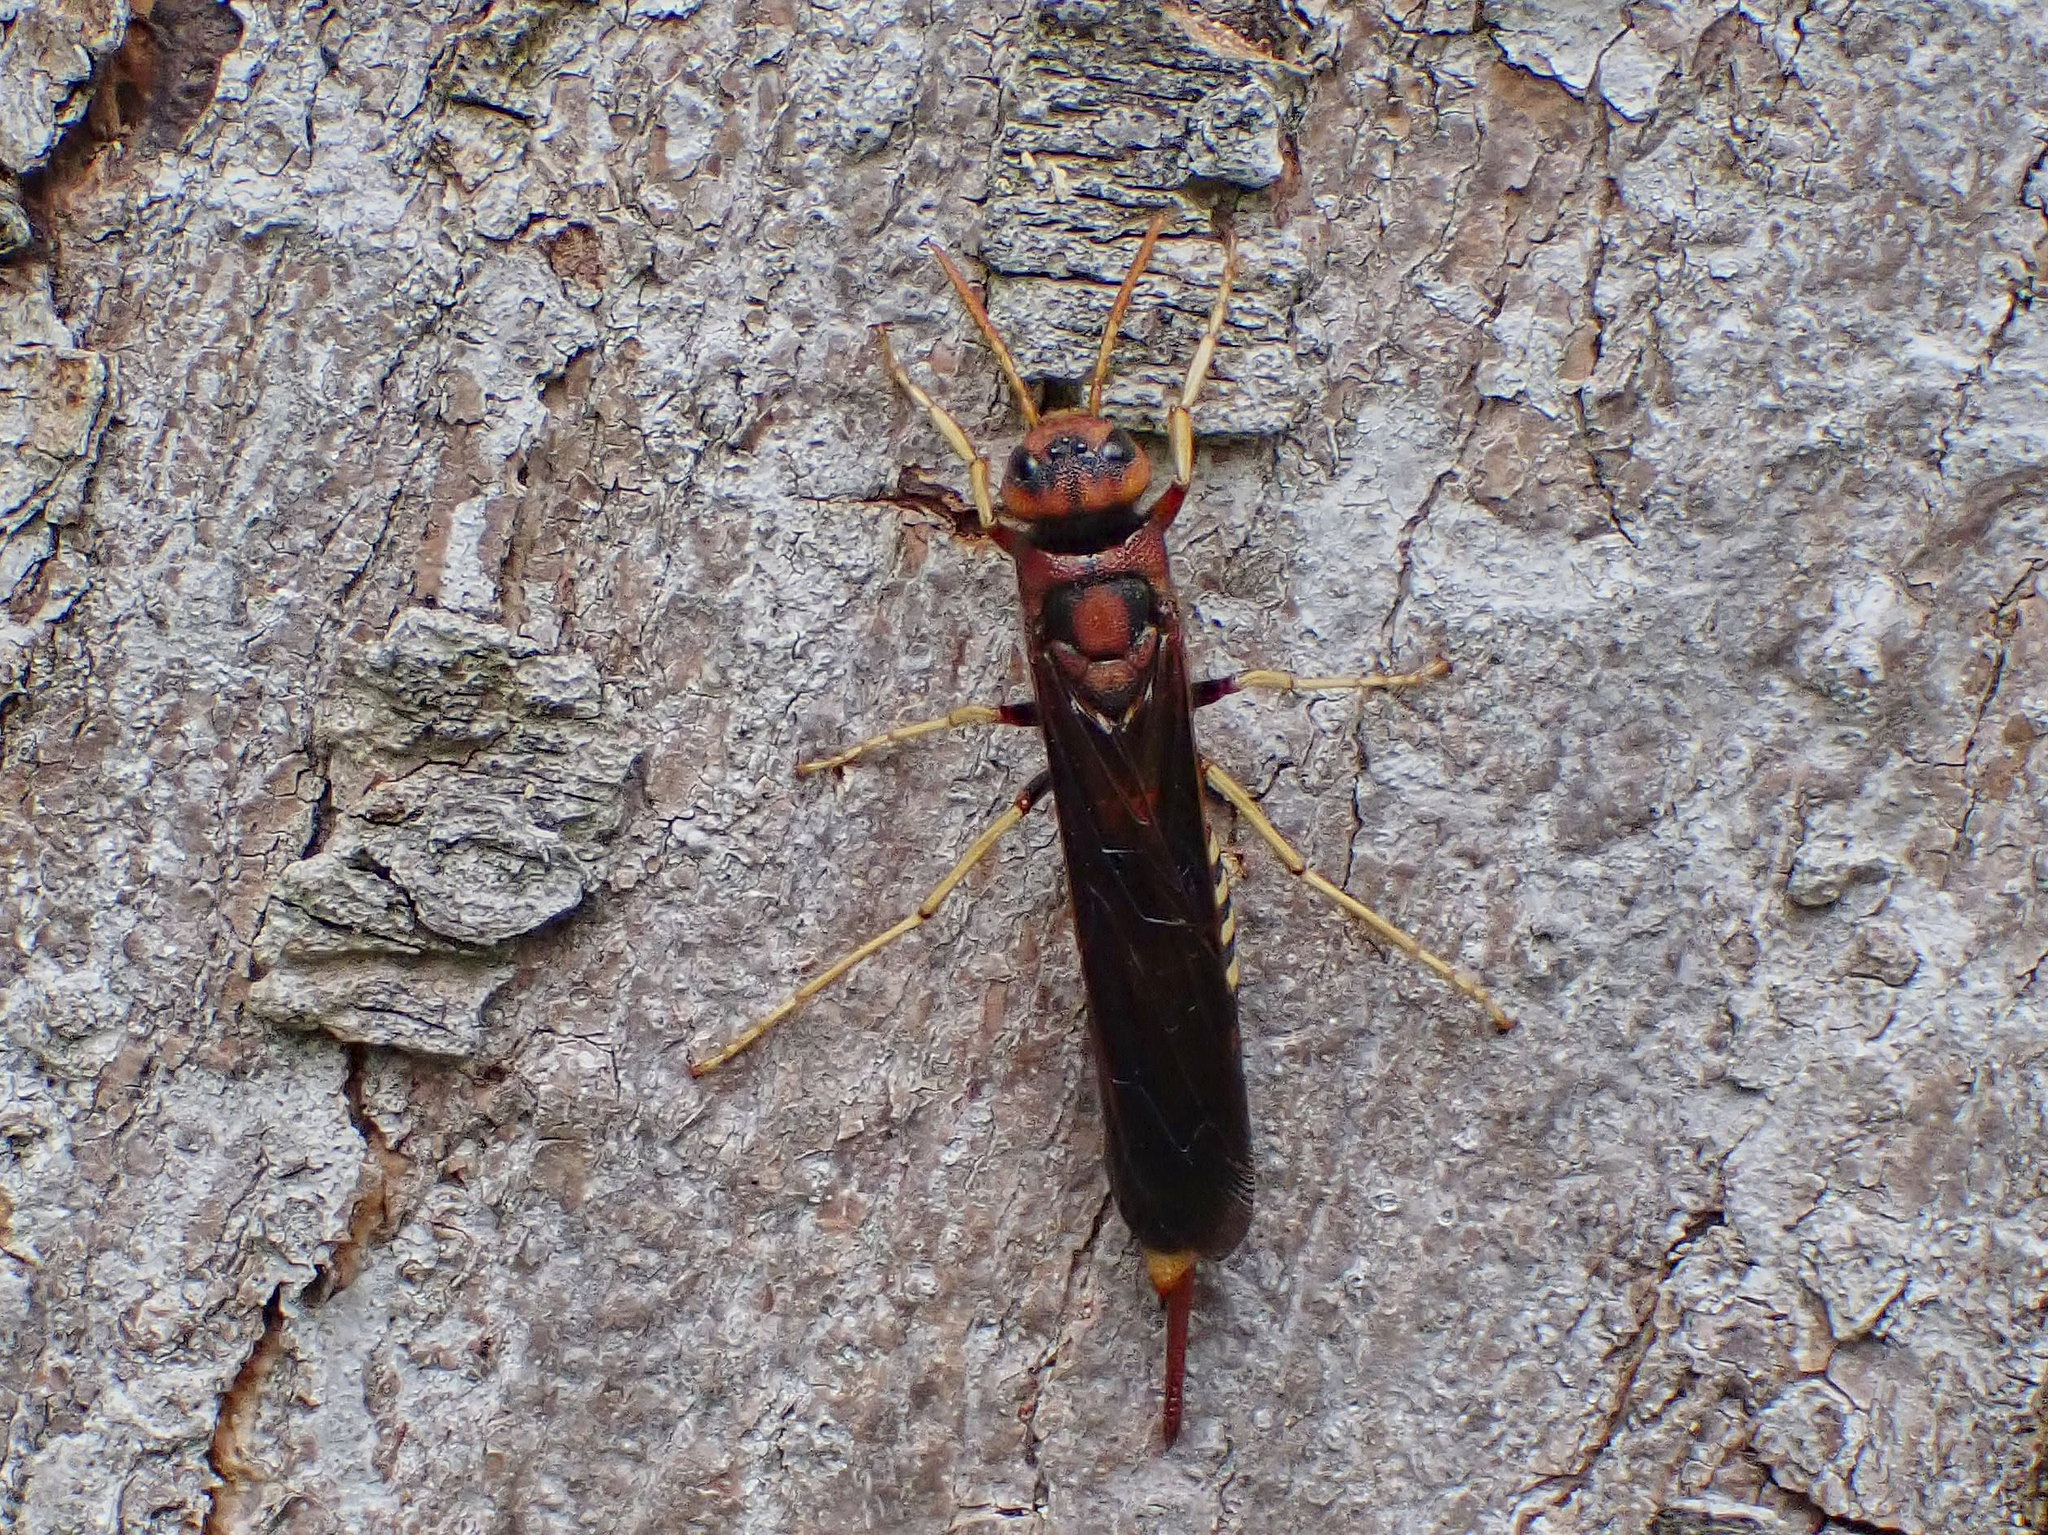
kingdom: Animalia
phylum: Arthropoda
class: Insecta
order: Hymenoptera
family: Siricidae
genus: Tremex
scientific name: Tremex columba
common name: Wasp
